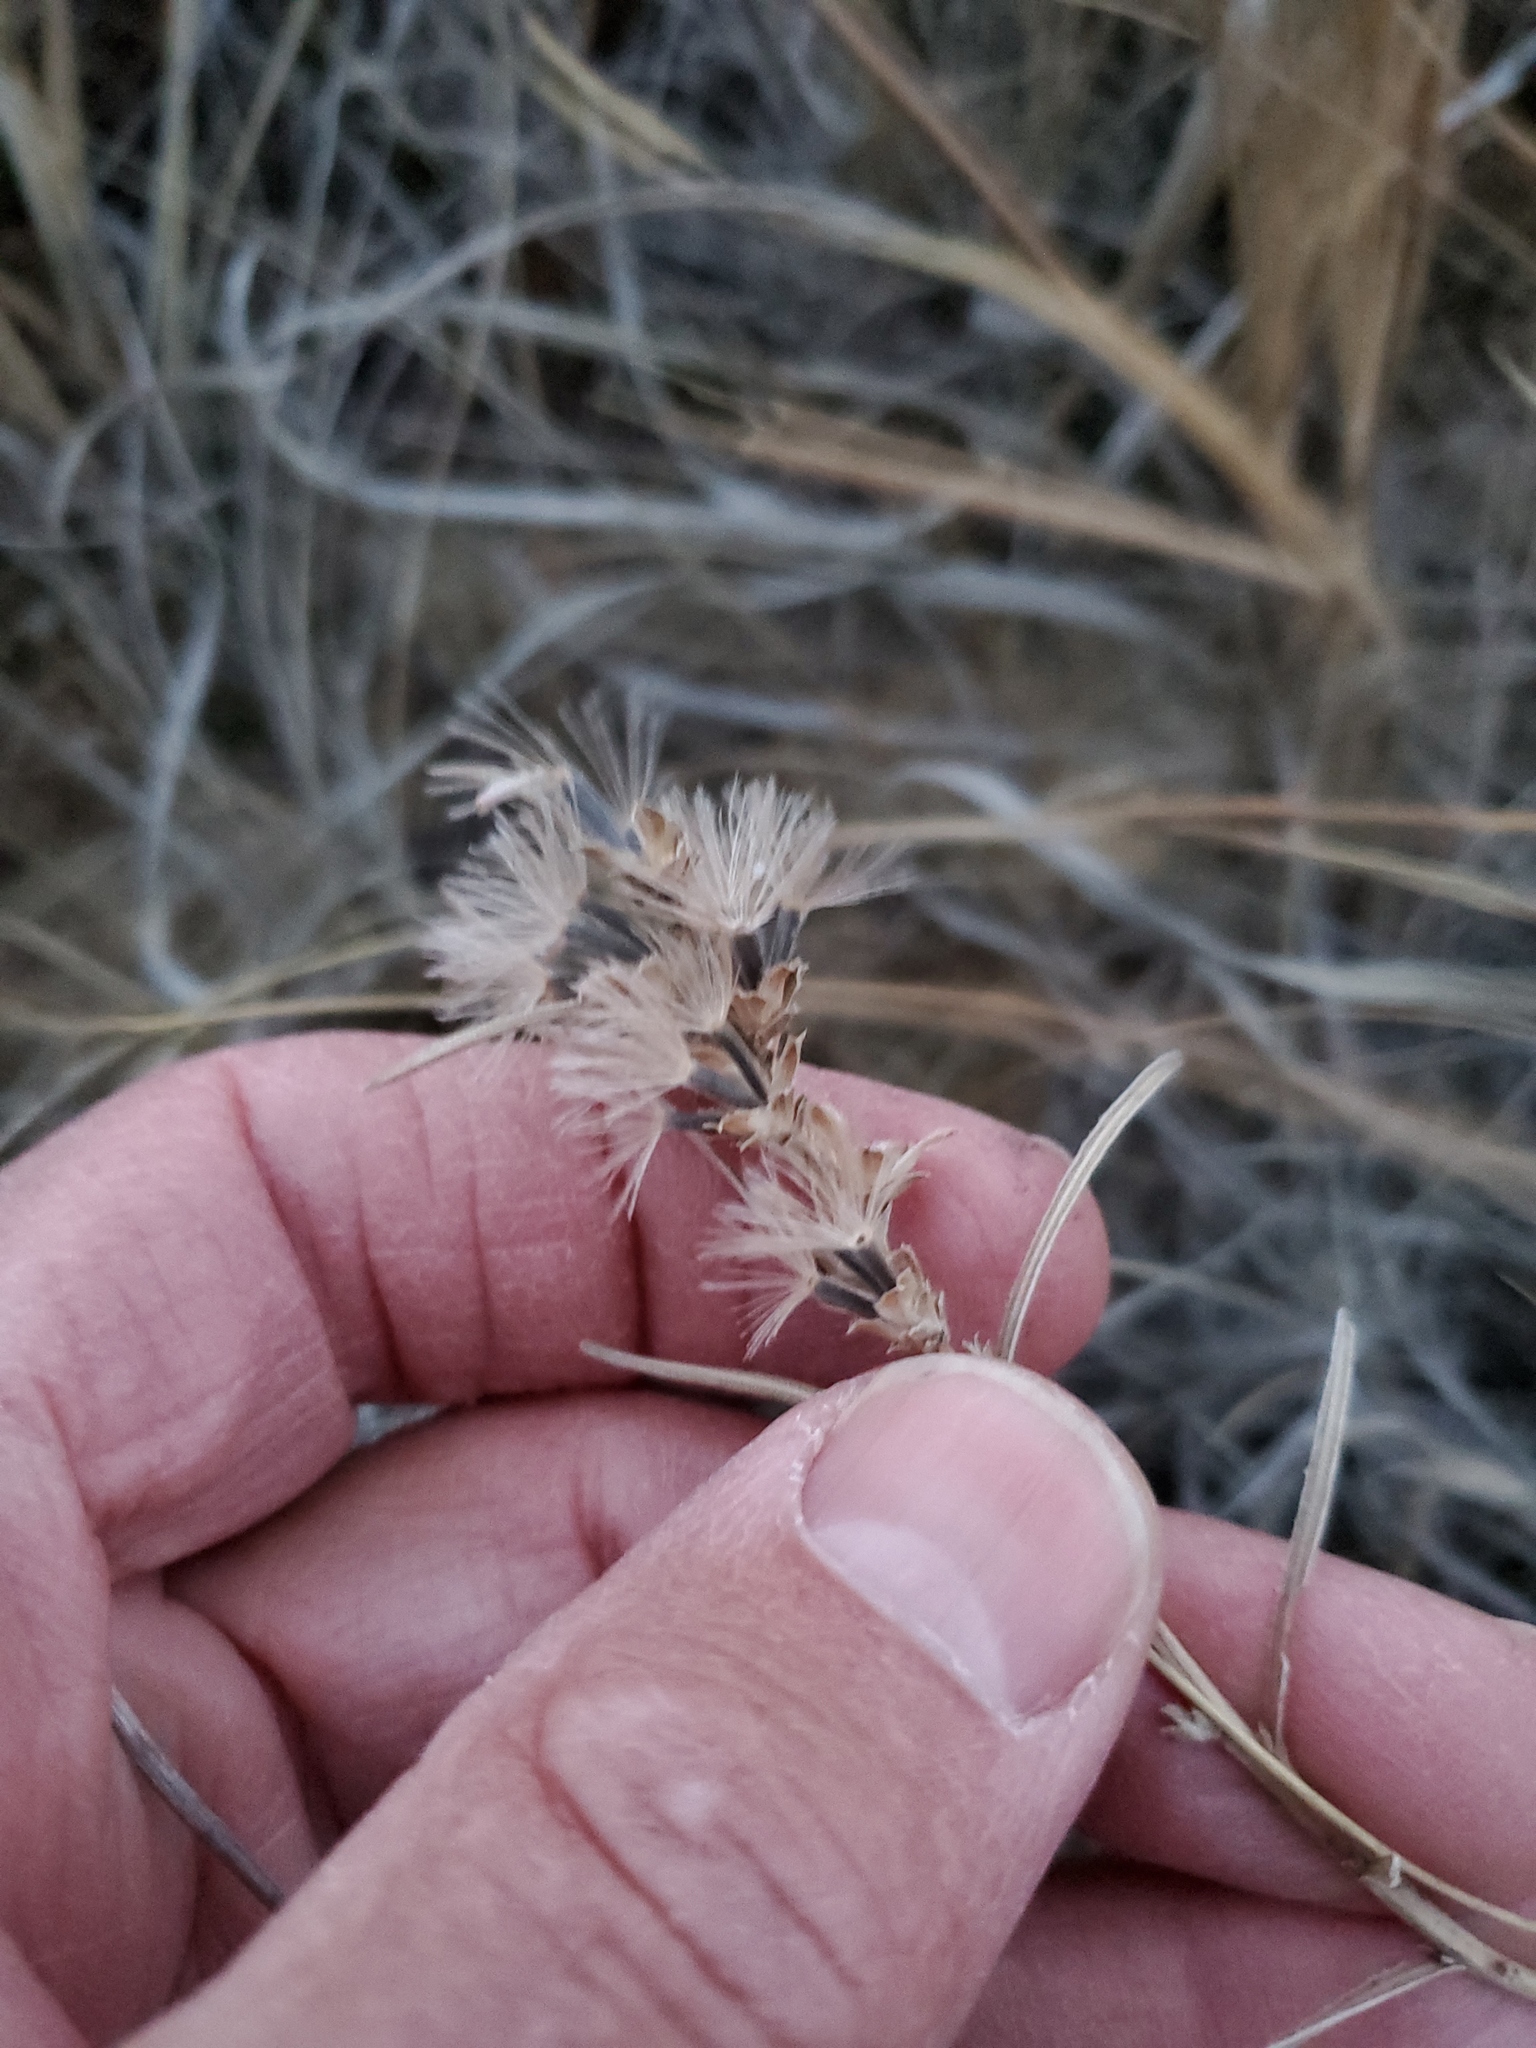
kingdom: Plantae
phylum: Tracheophyta
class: Magnoliopsida
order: Asterales
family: Asteraceae
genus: Liatris
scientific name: Liatris punctata
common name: Dotted gayfeather
